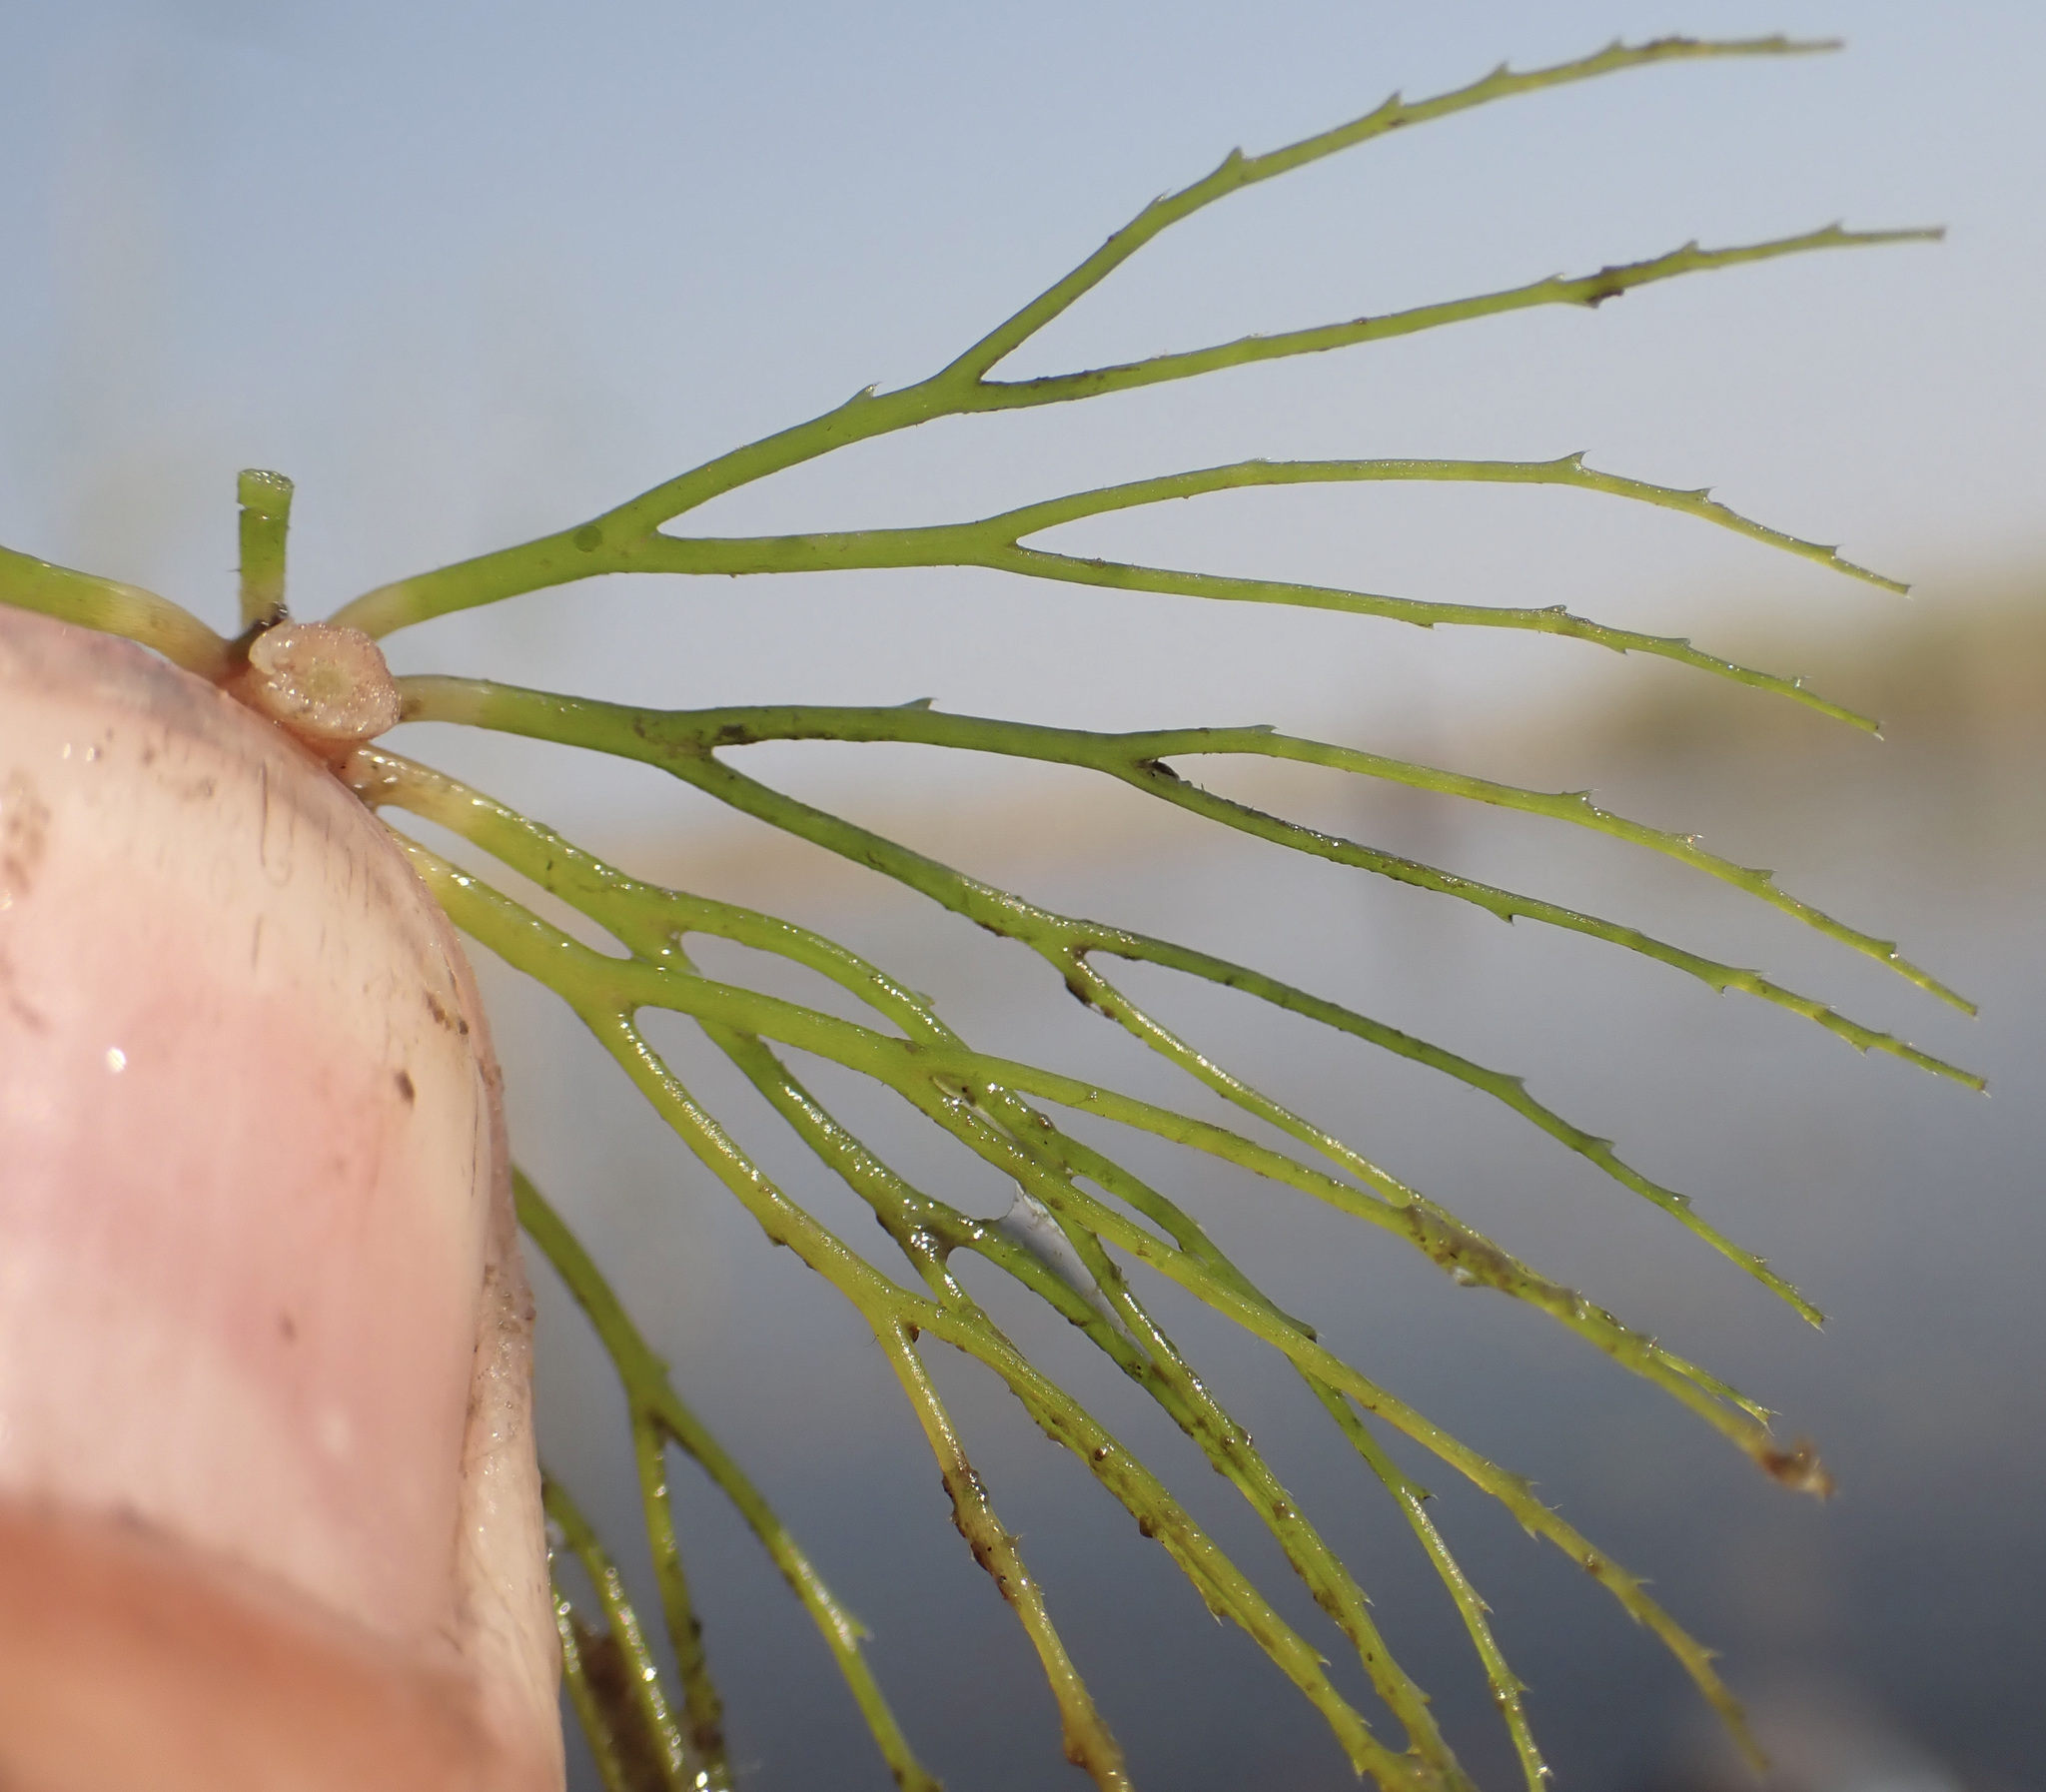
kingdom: Plantae
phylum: Tracheophyta
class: Magnoliopsida
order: Ceratophyllales
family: Ceratophyllaceae
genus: Ceratophyllum
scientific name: Ceratophyllum demersum
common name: Rigid hornwort
